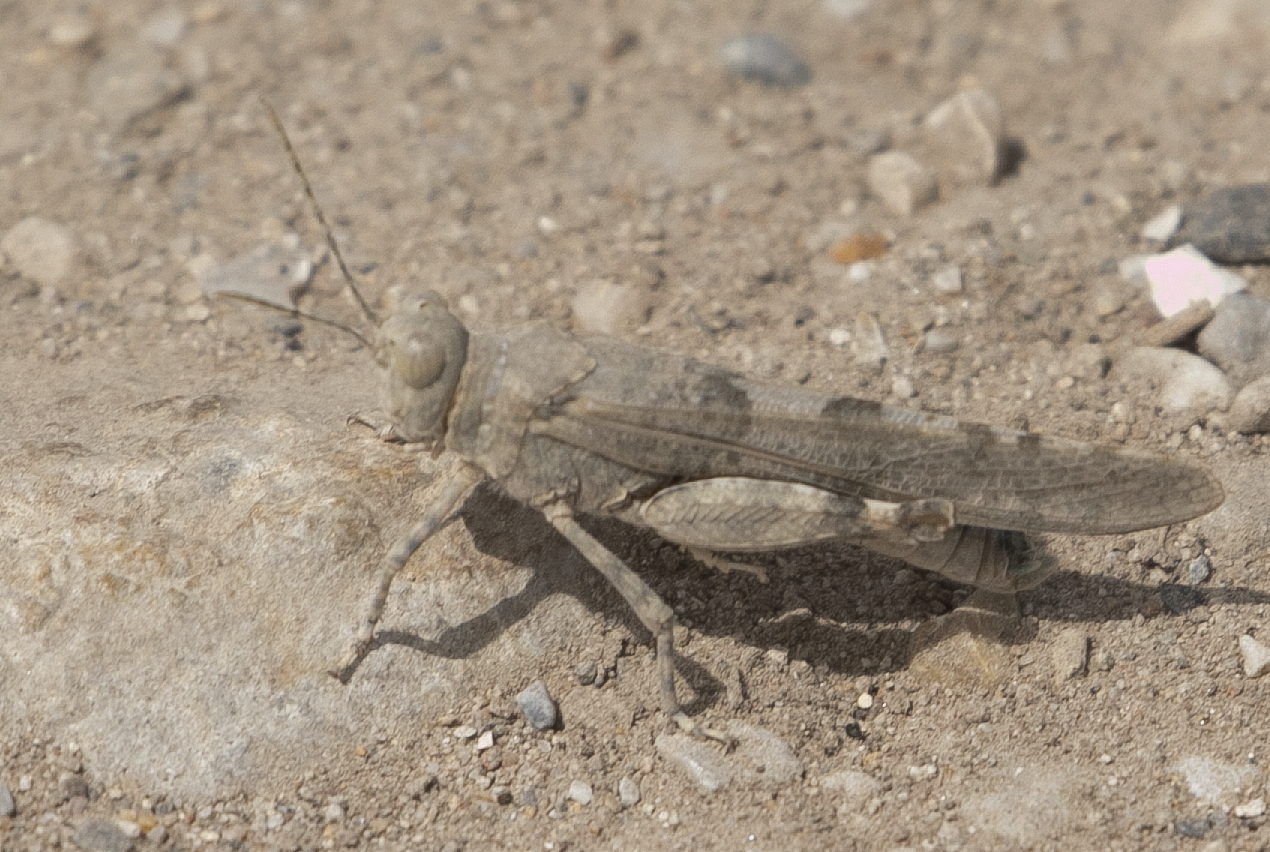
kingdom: Animalia
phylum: Arthropoda
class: Insecta
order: Orthoptera
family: Acrididae
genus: Sphingonotus
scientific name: Sphingonotus caerulans
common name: Blue-winged locust
